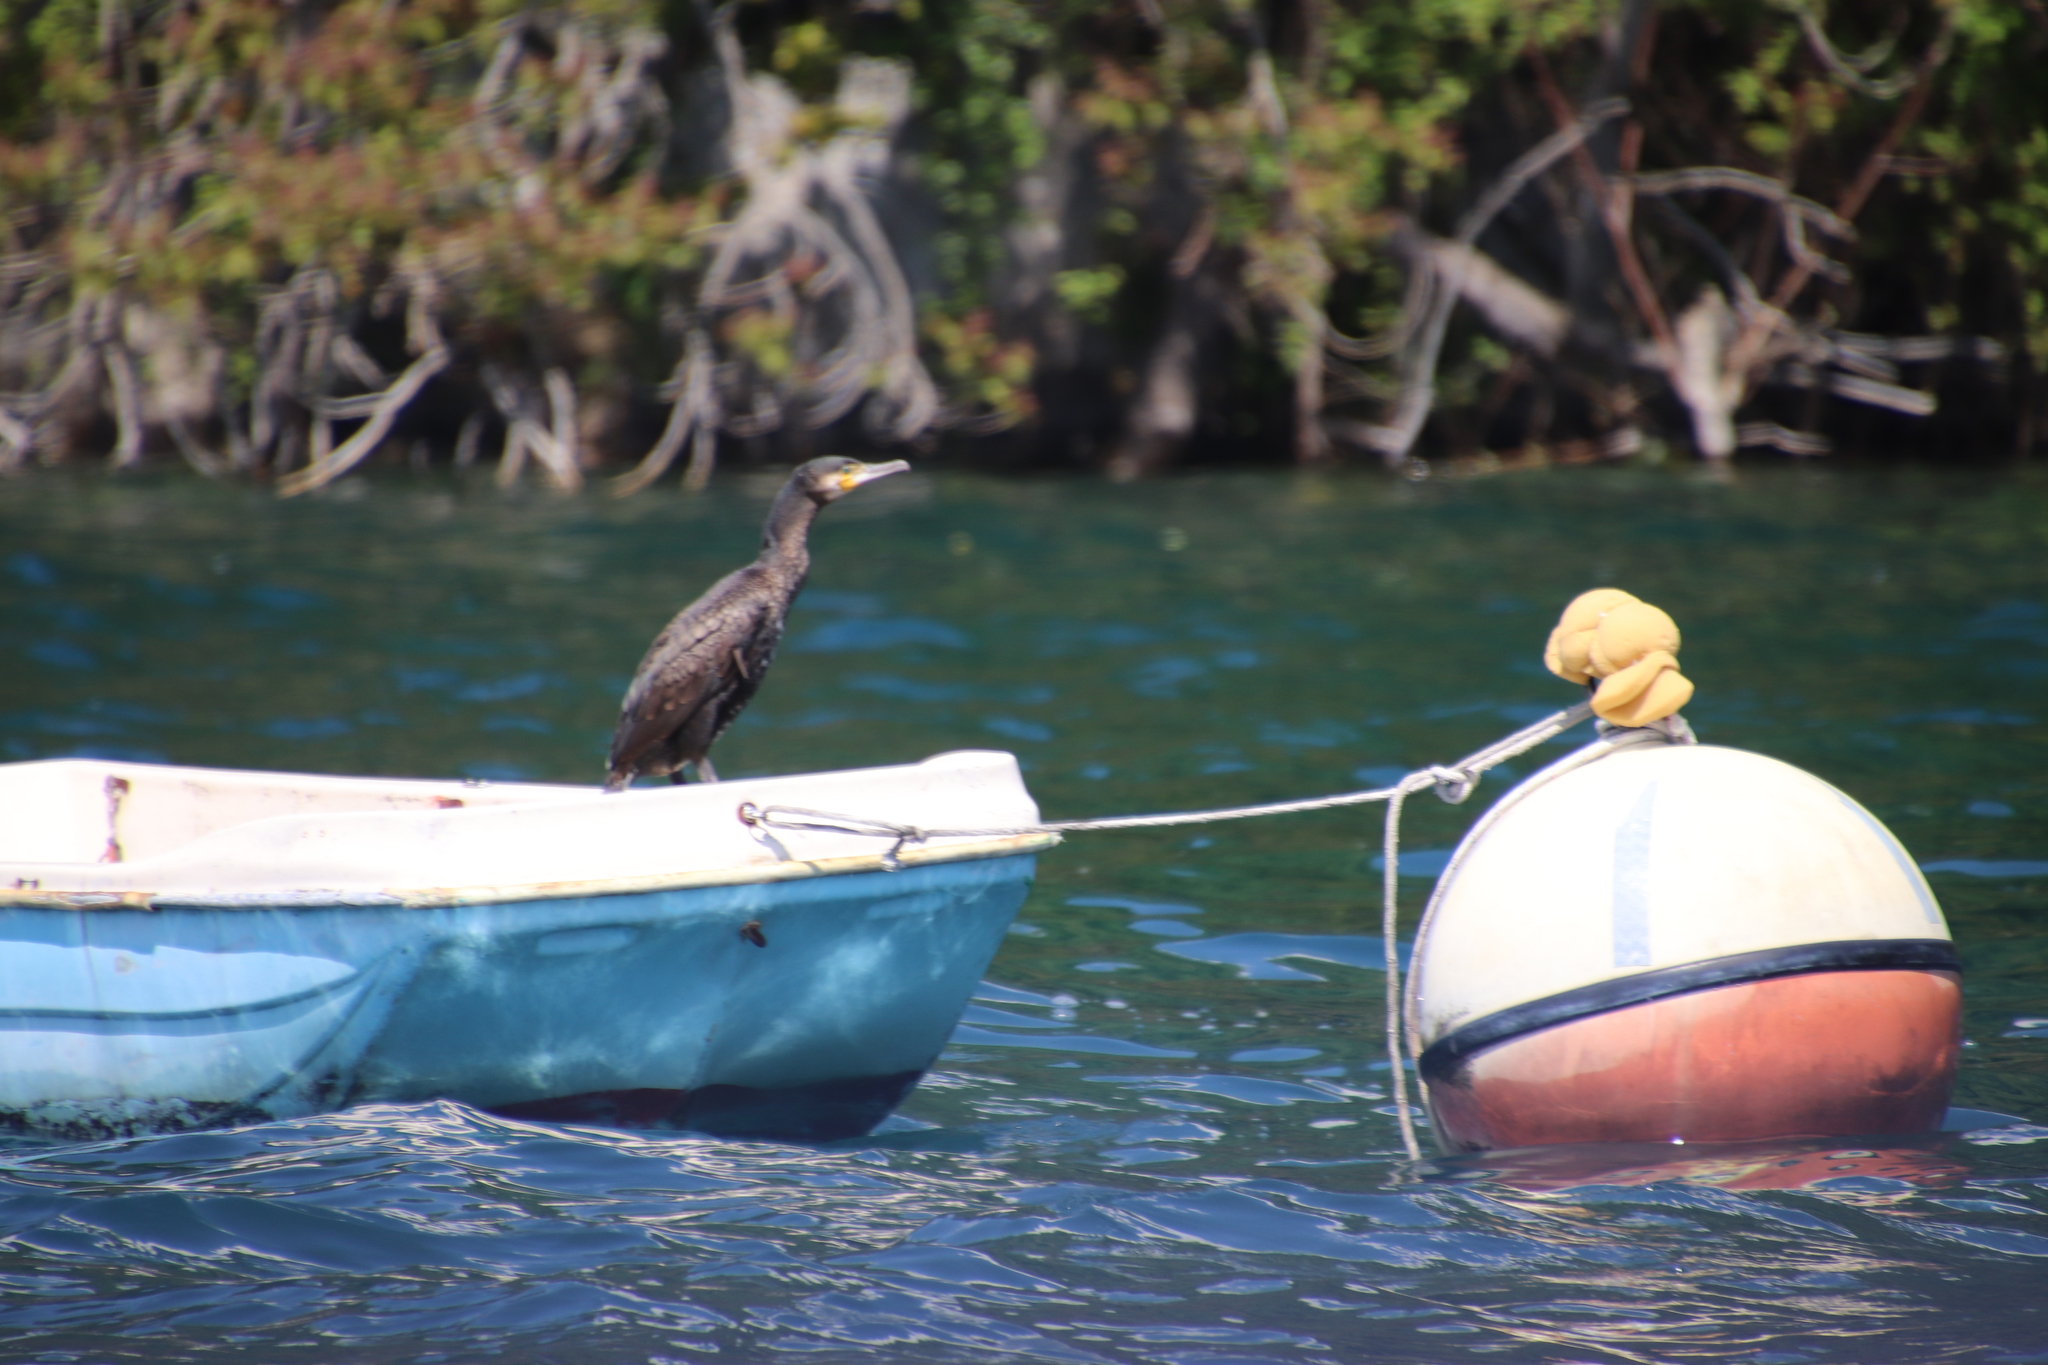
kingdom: Animalia
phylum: Chordata
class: Aves
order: Suliformes
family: Phalacrocoracidae
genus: Phalacrocorax
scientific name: Phalacrocorax carbo
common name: Great cormorant
